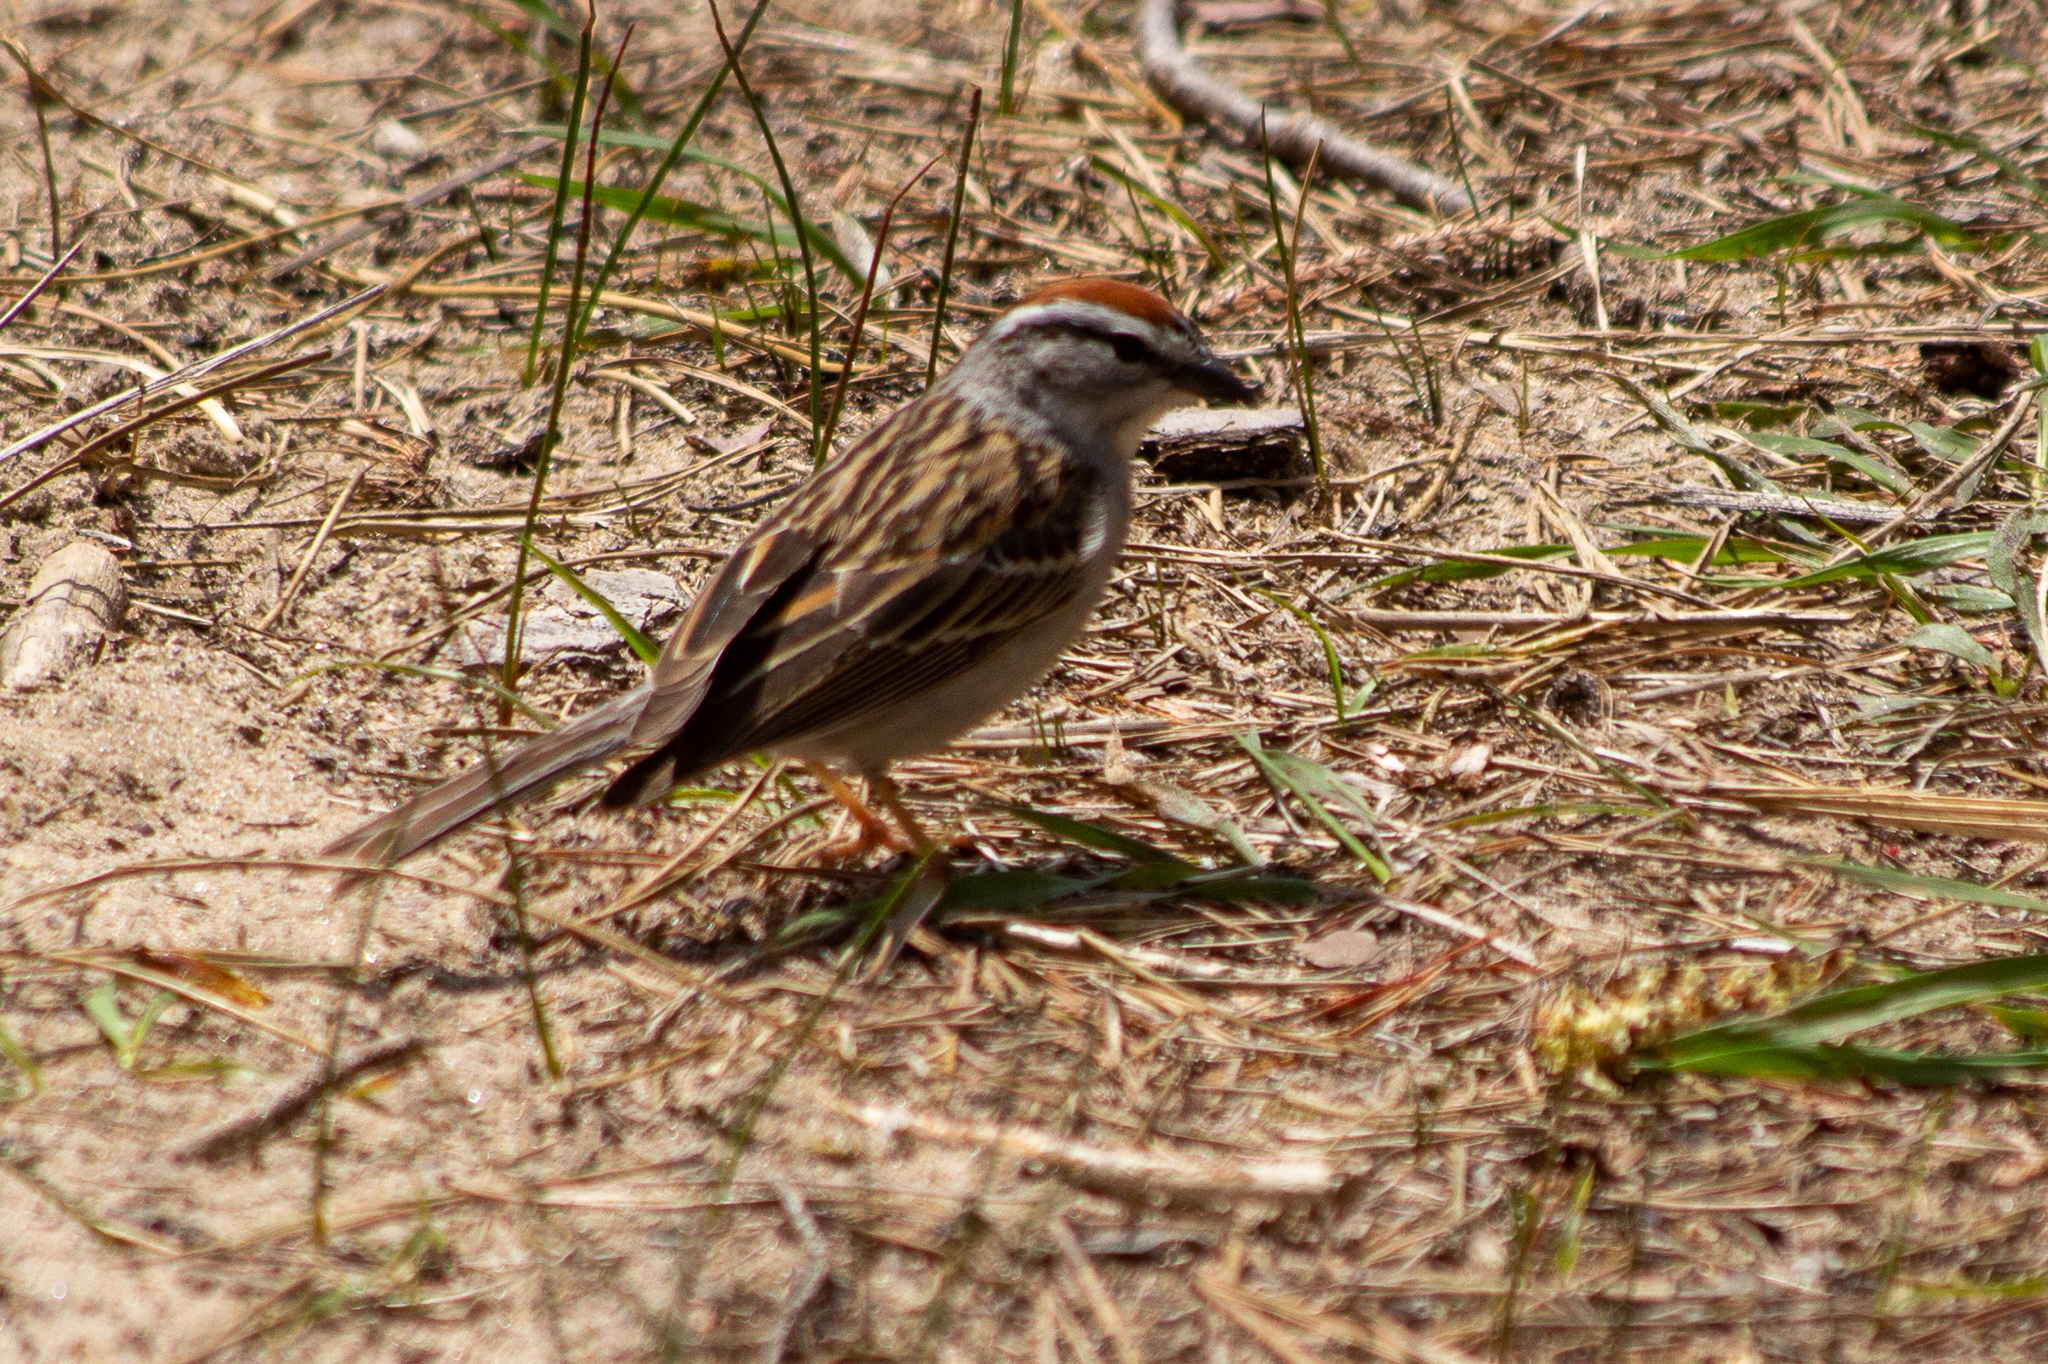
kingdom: Animalia
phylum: Chordata
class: Aves
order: Passeriformes
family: Passerellidae
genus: Spizella
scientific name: Spizella passerina
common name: Chipping sparrow
